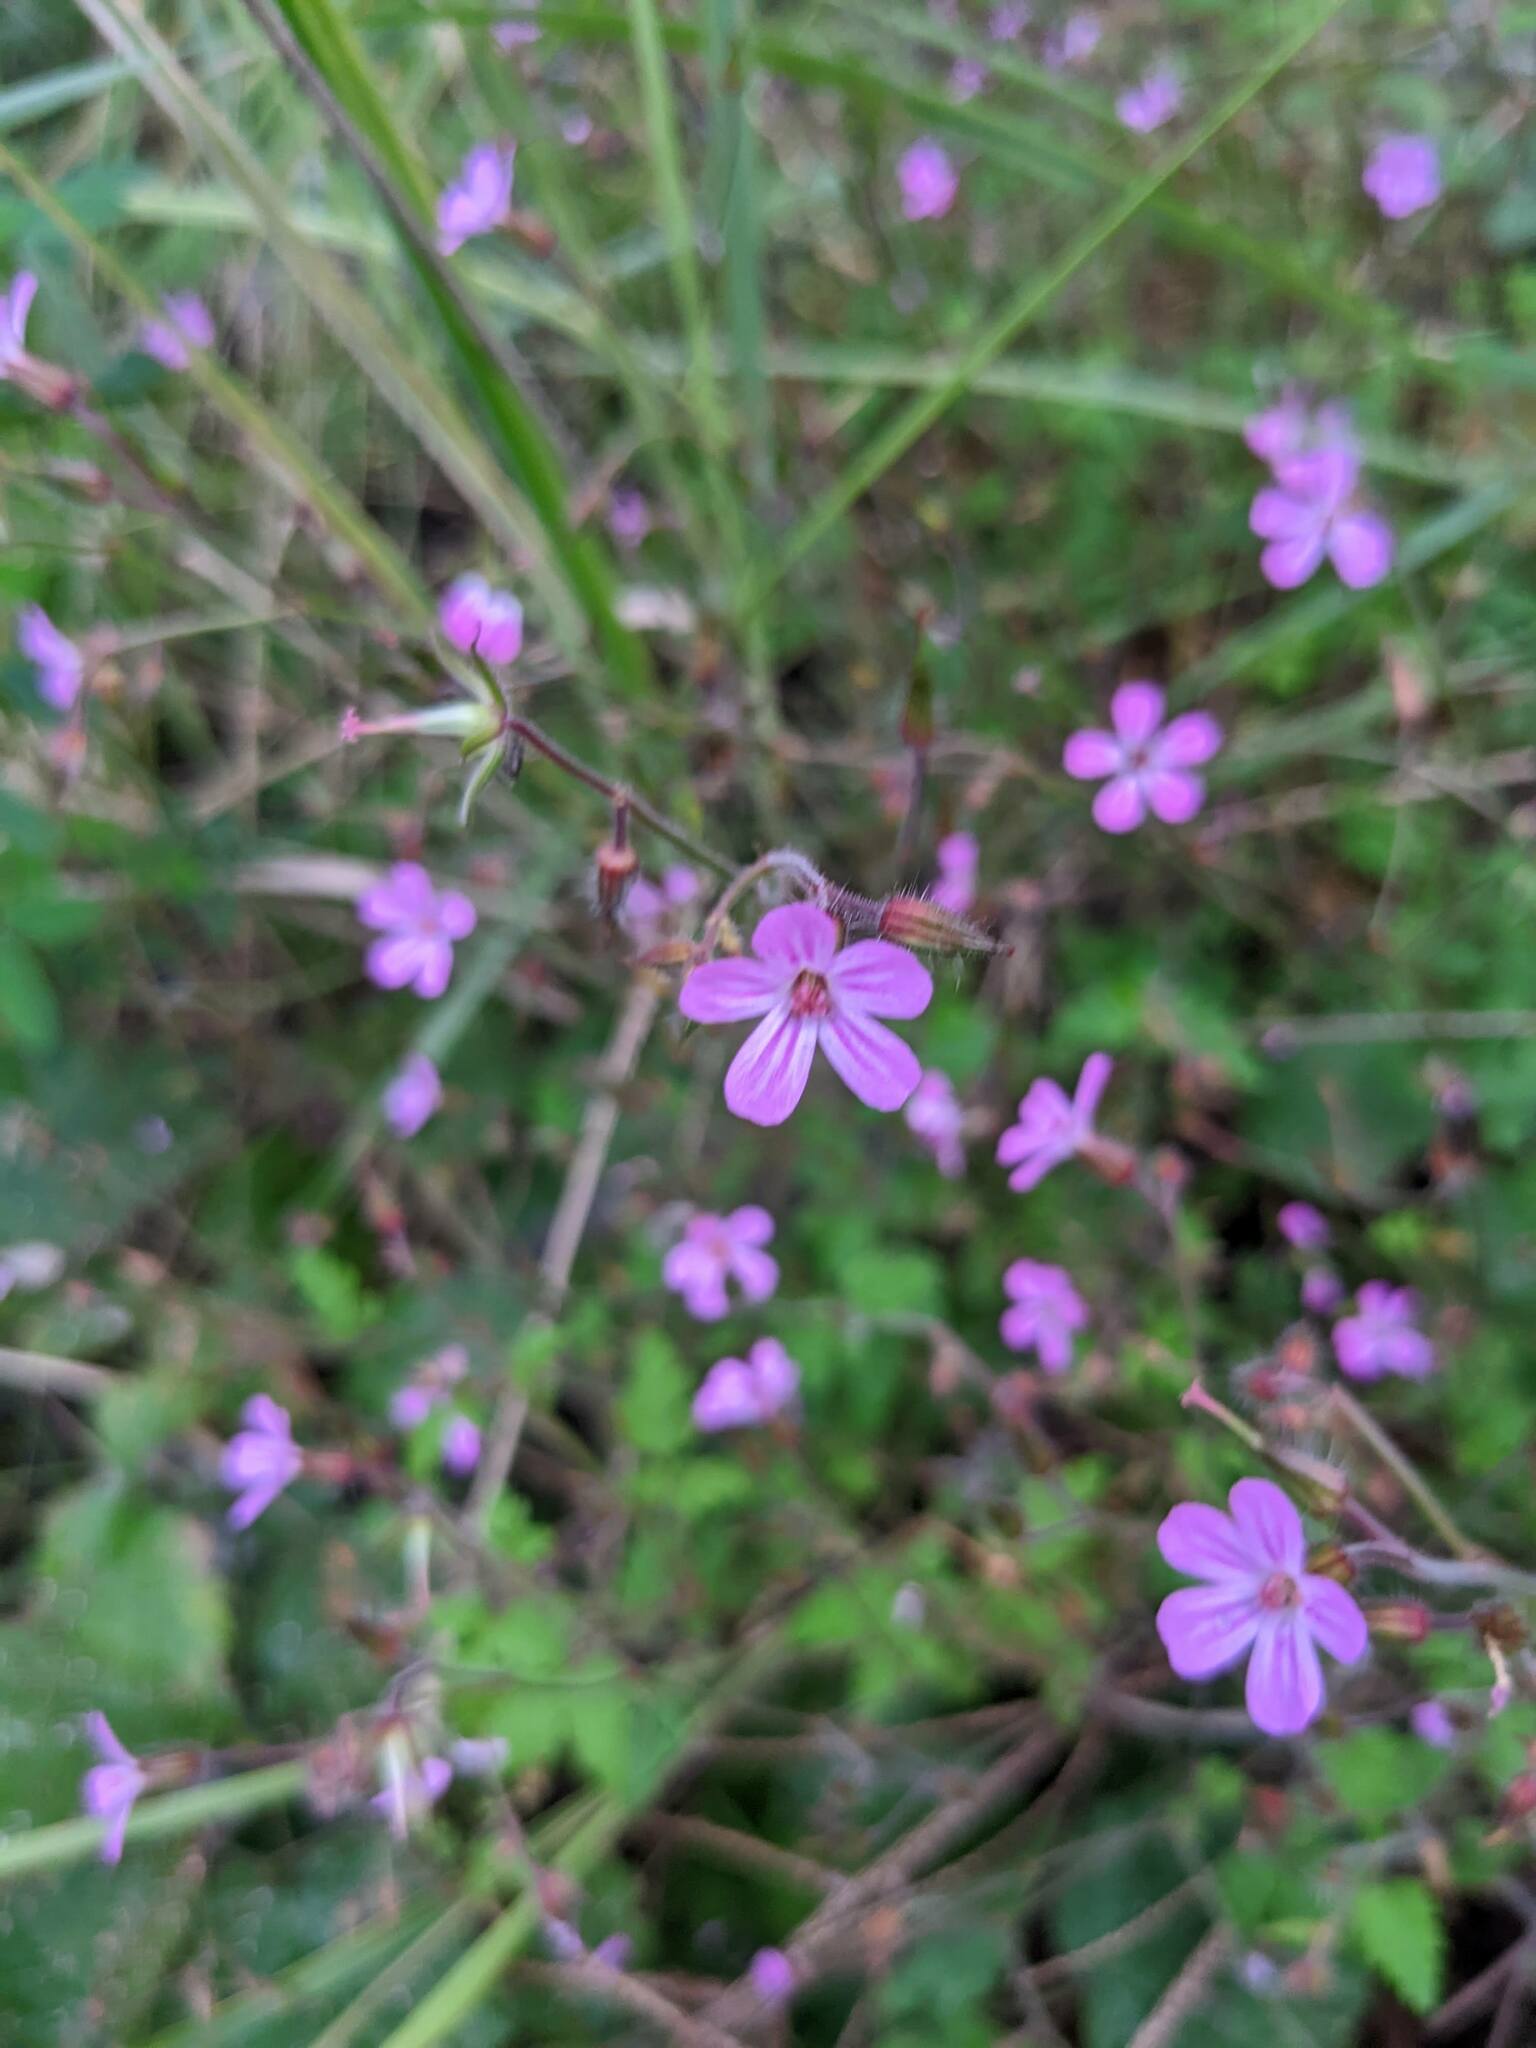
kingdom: Plantae
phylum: Tracheophyta
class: Magnoliopsida
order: Geraniales
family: Geraniaceae
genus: Geranium
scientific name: Geranium robertianum
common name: Herb-robert
